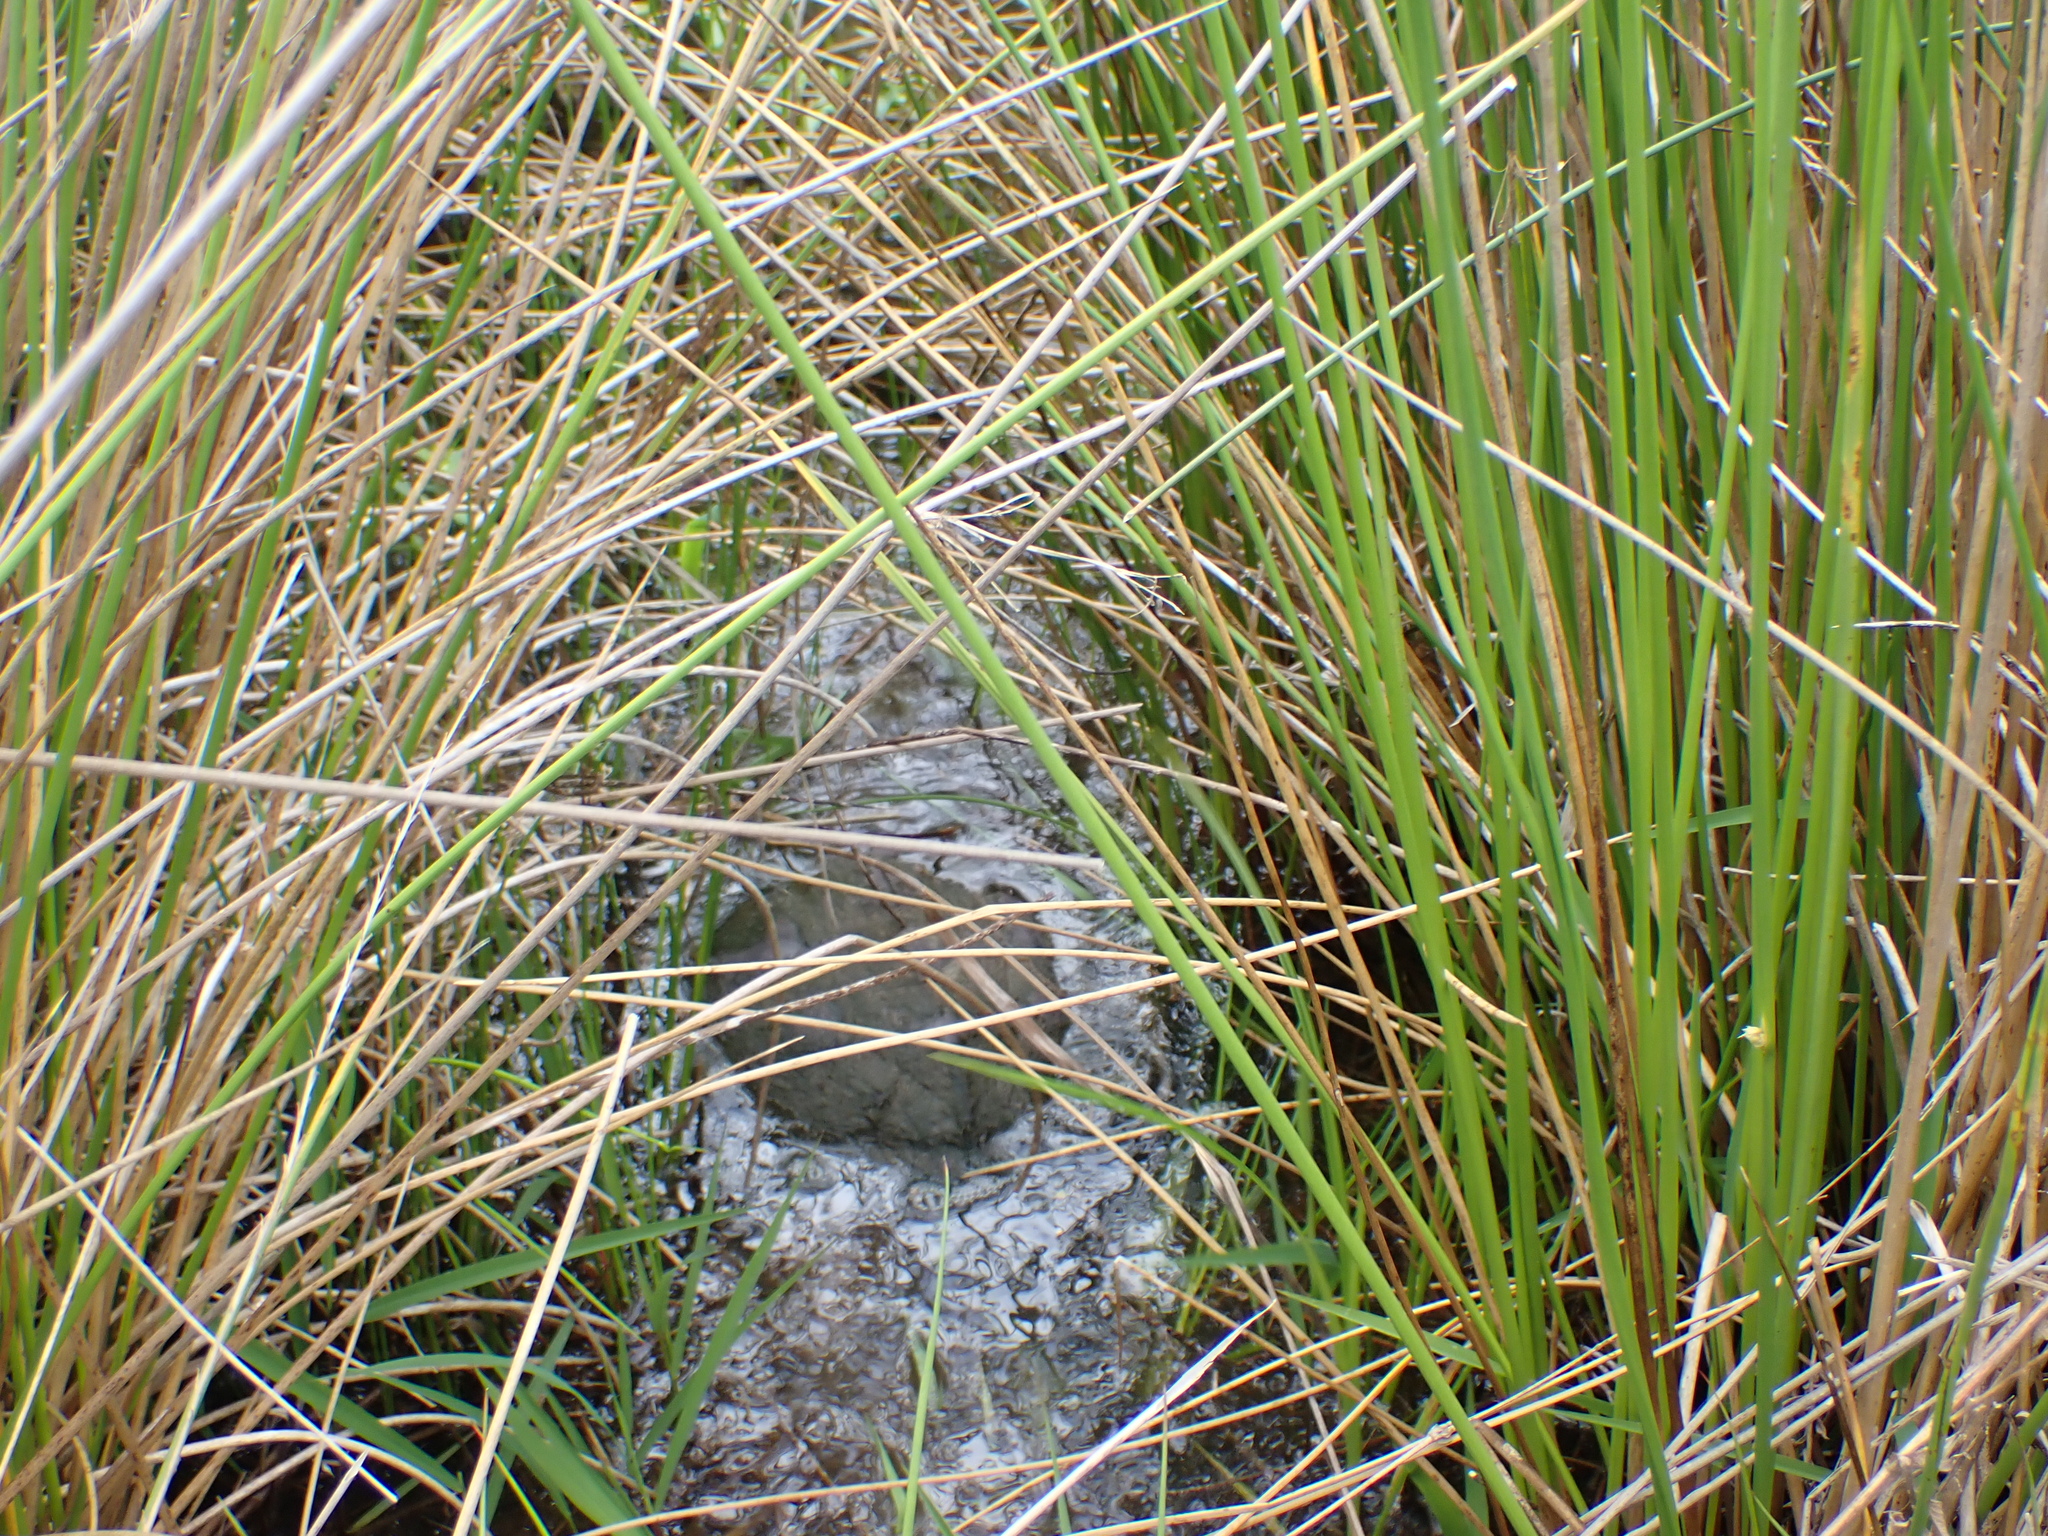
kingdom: Animalia
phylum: Chordata
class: Testudines
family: Chelydridae
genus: Chelydra
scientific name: Chelydra serpentina
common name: Common snapping turtle
